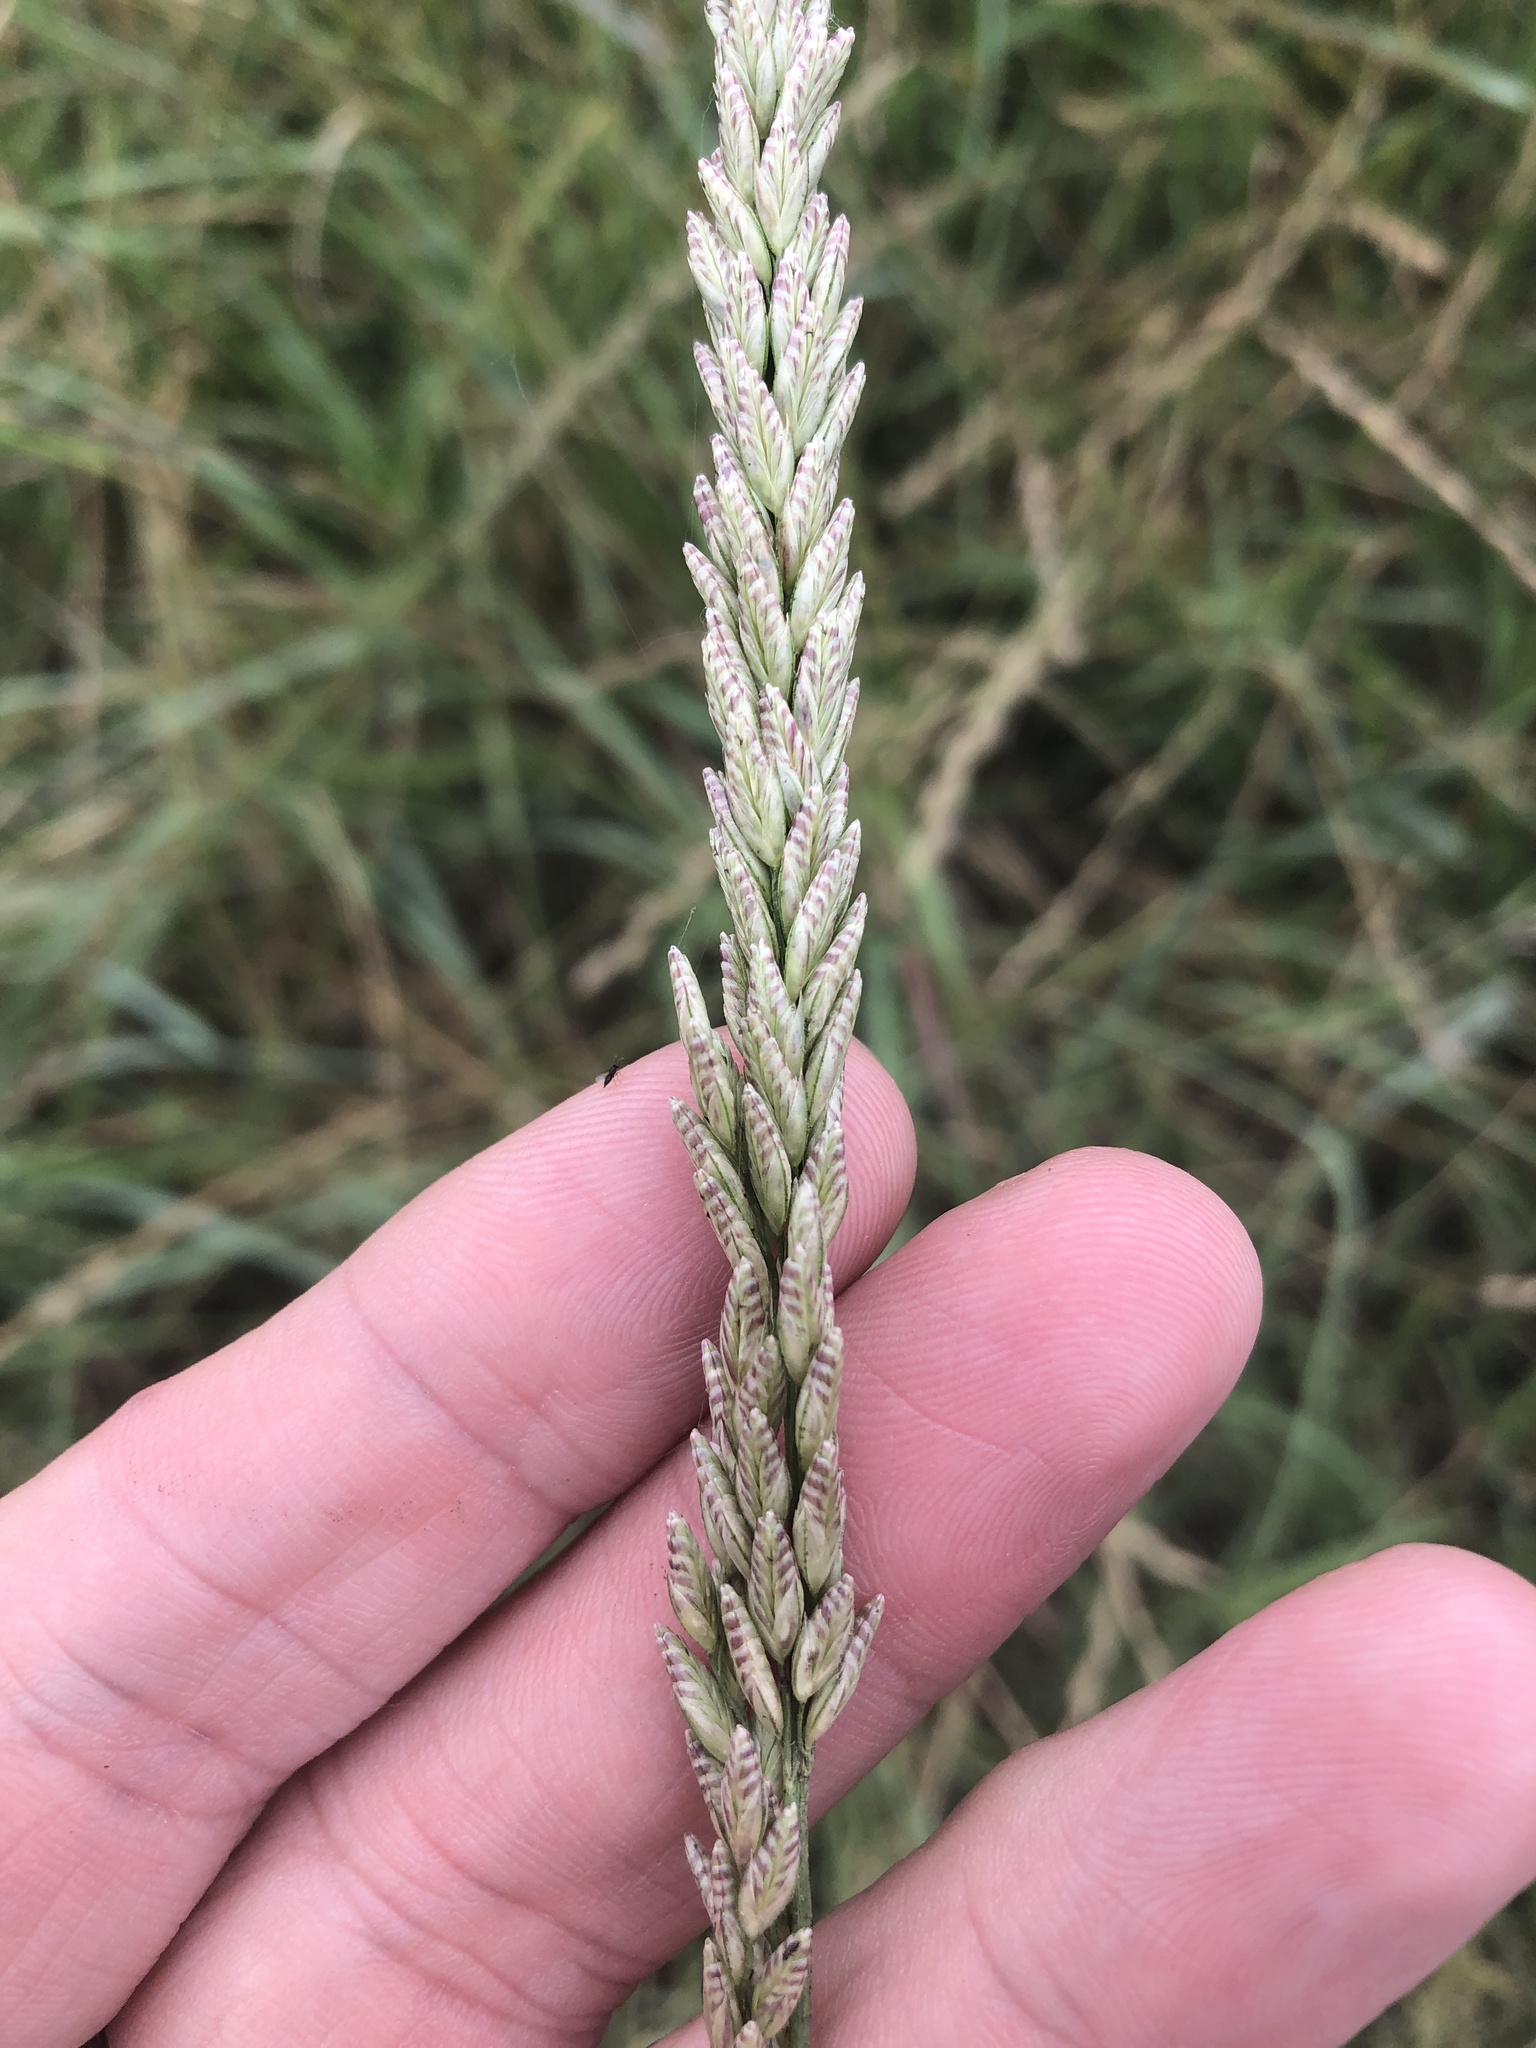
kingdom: Plantae
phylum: Tracheophyta
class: Liliopsida
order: Poales
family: Poaceae
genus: Tridens
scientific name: Tridens albescens
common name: White tridens
